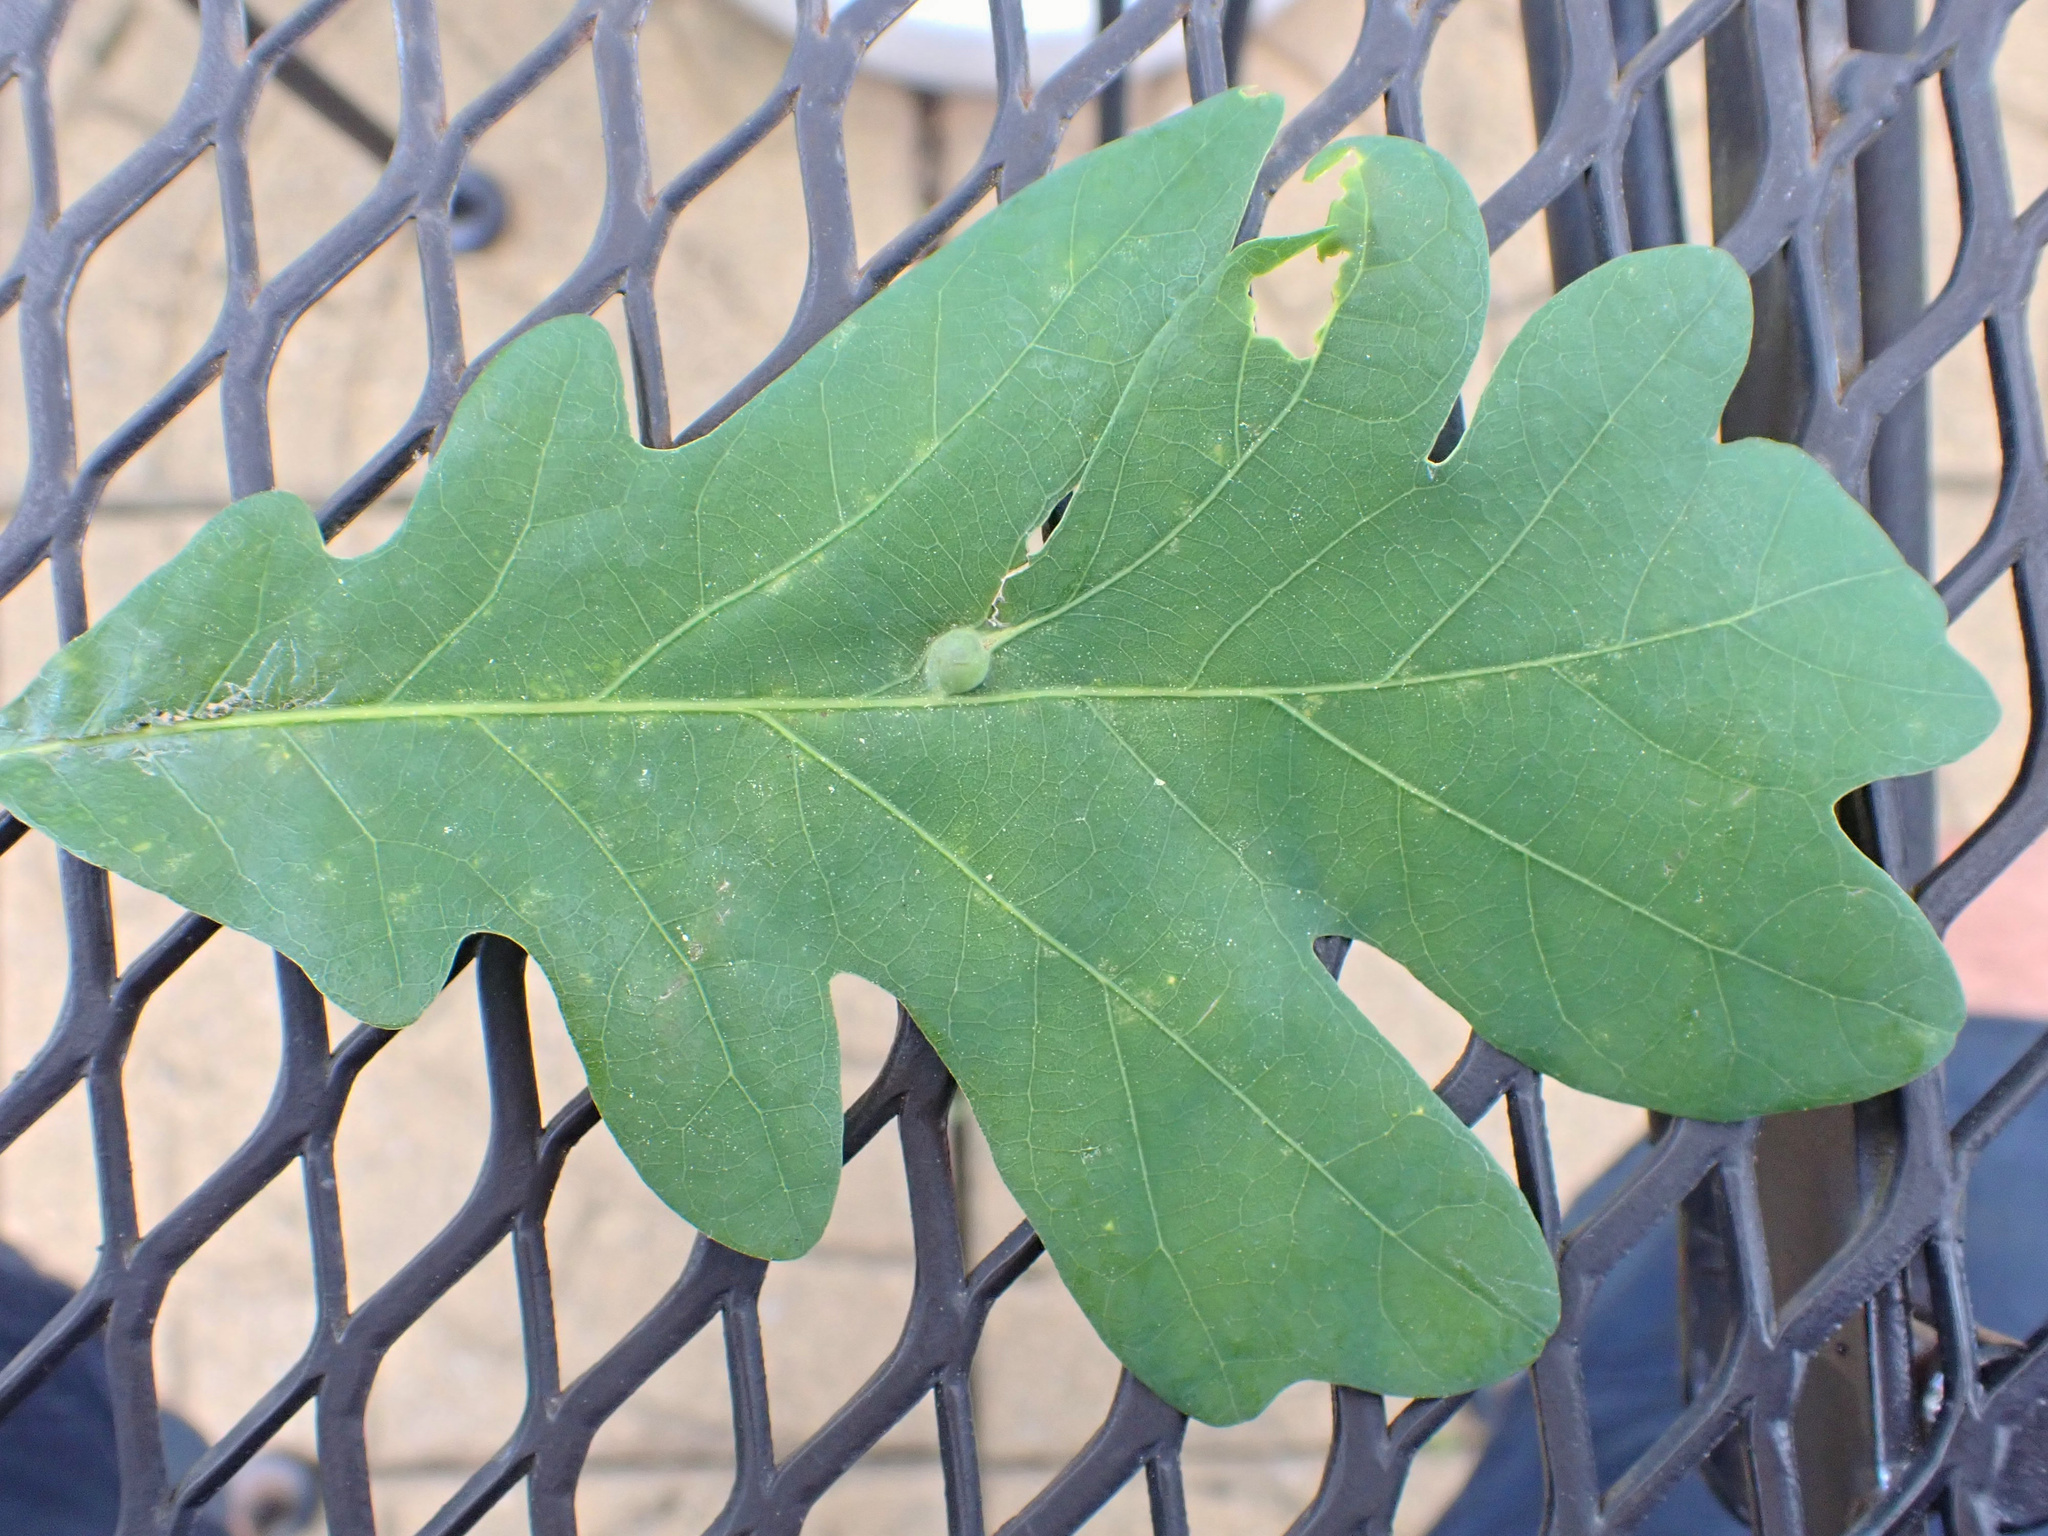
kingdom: Animalia
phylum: Arthropoda
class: Insecta
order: Hymenoptera
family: Cynipidae
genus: Andricus
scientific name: Andricus
